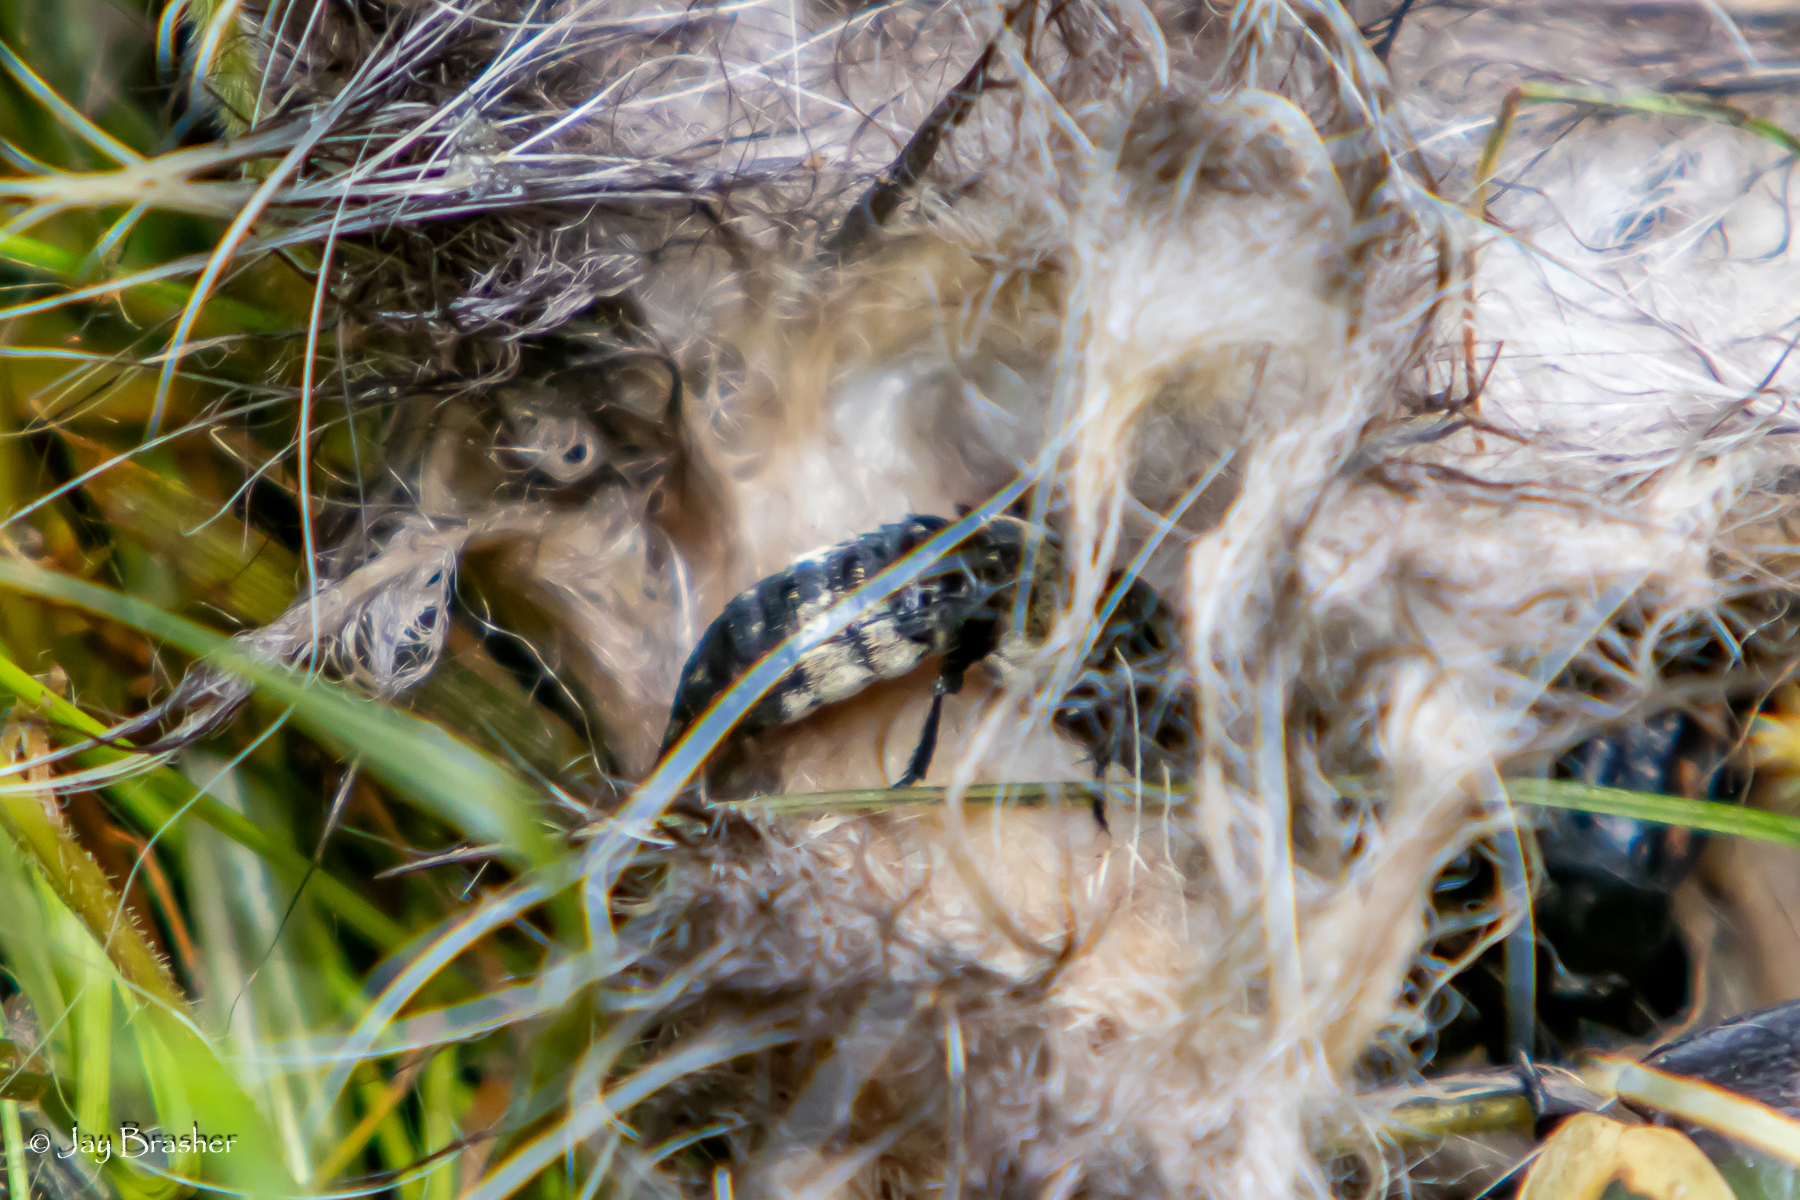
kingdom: Animalia
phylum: Arthropoda
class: Insecta
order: Coleoptera
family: Staphylinidae
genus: Creophilus
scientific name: Creophilus maxillosus
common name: Hairy rove beetle
